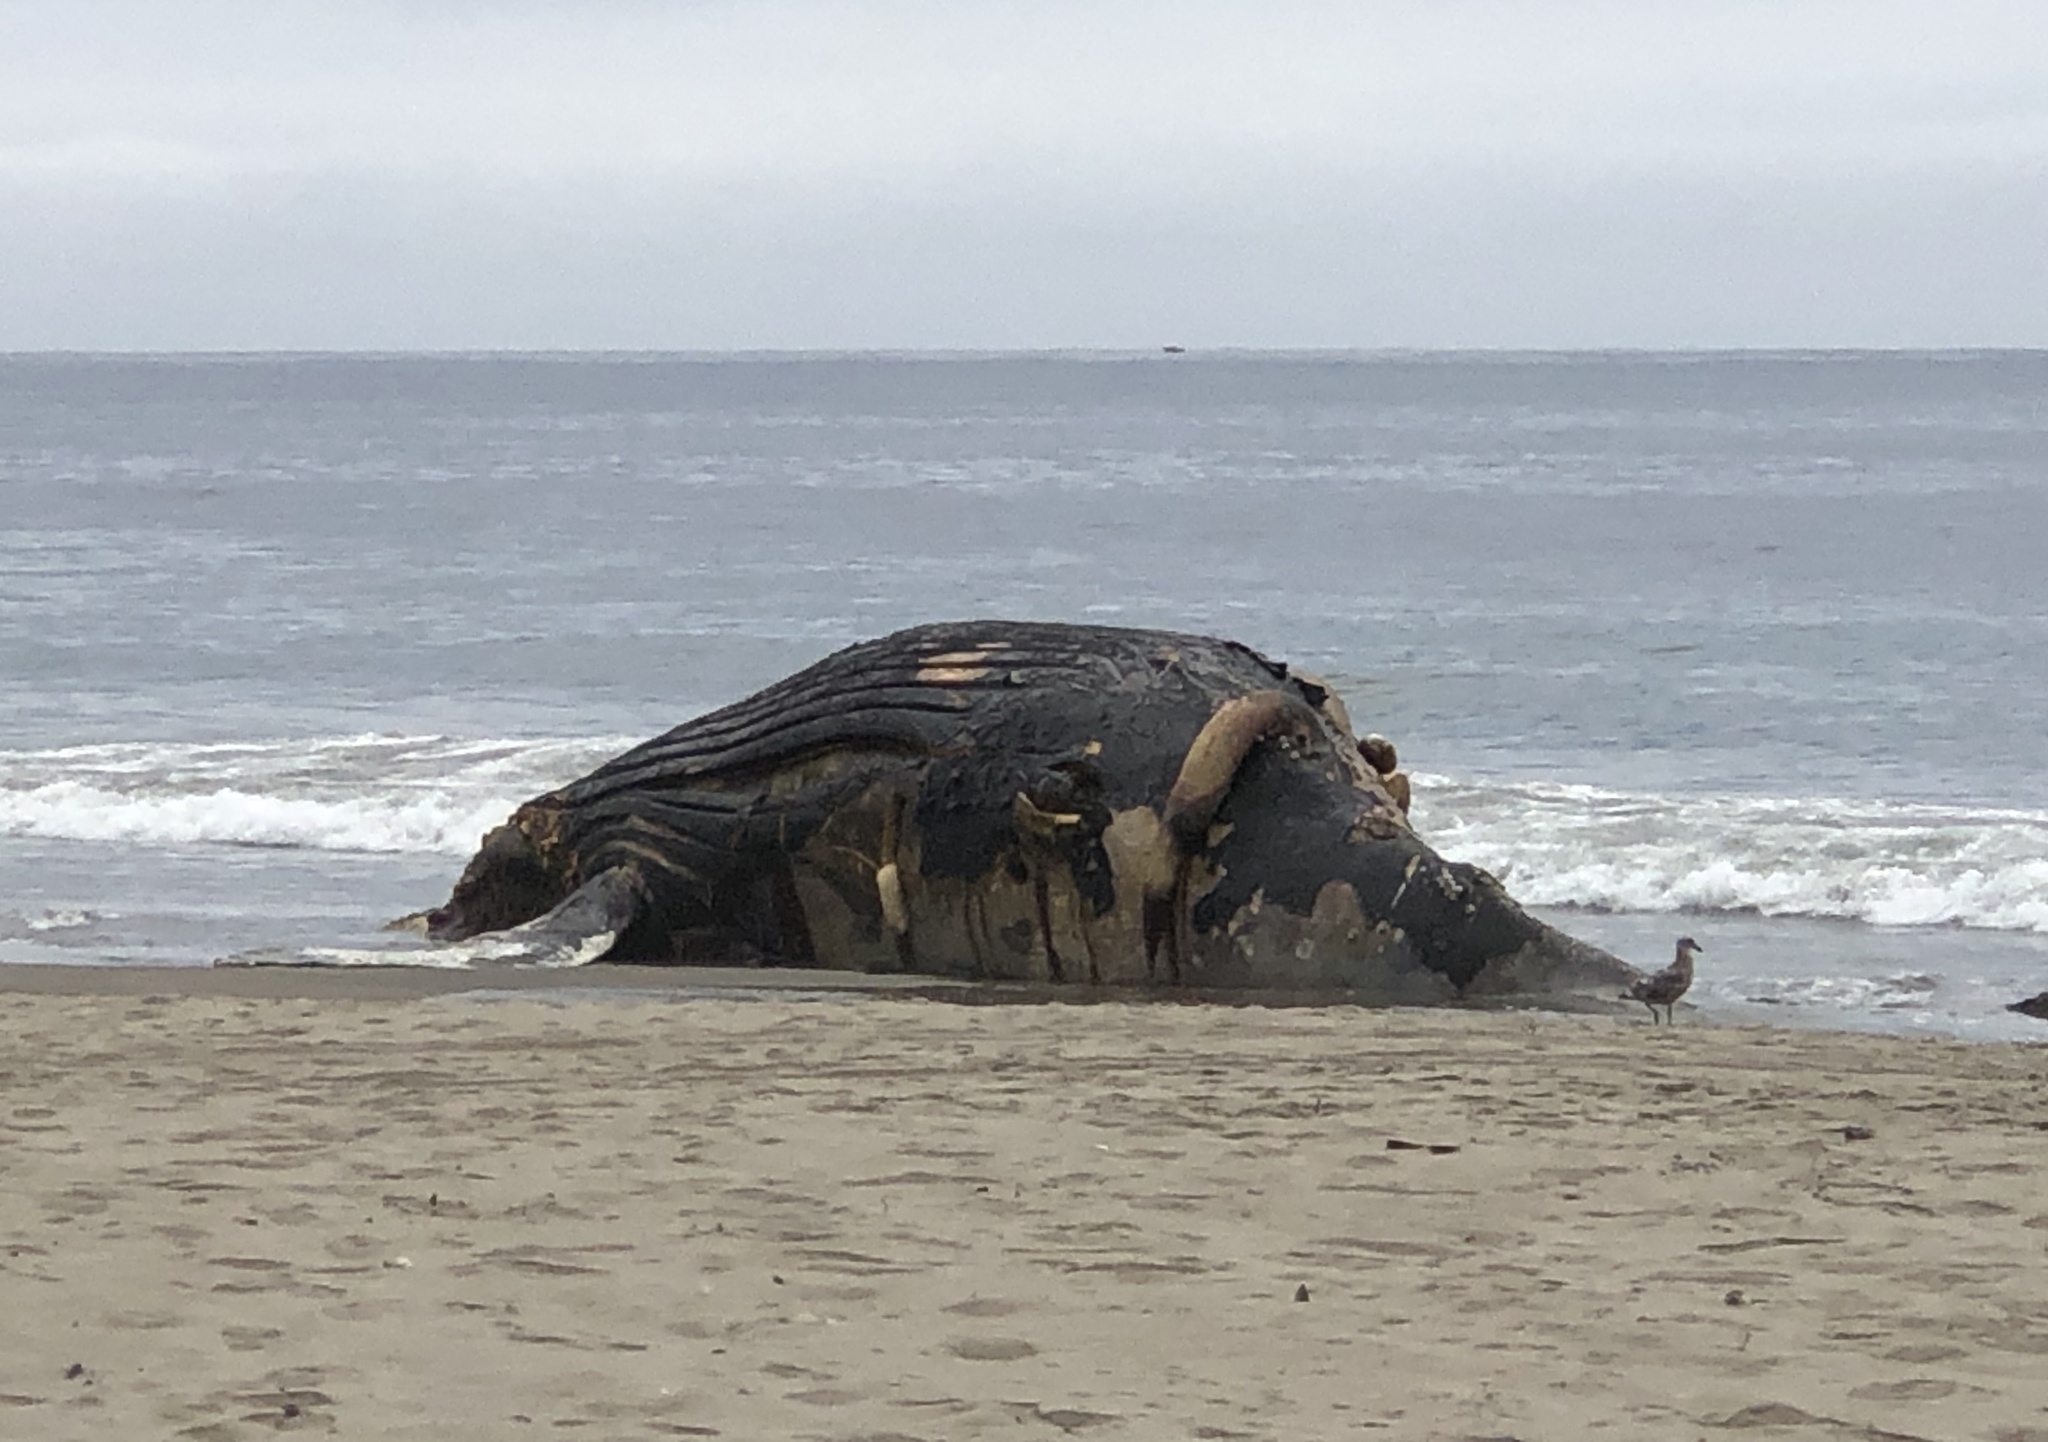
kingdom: Animalia
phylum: Chordata
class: Mammalia
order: Cetacea
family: Balaenopteridae
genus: Megaptera
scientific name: Megaptera novaeangliae
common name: Humpback whale
